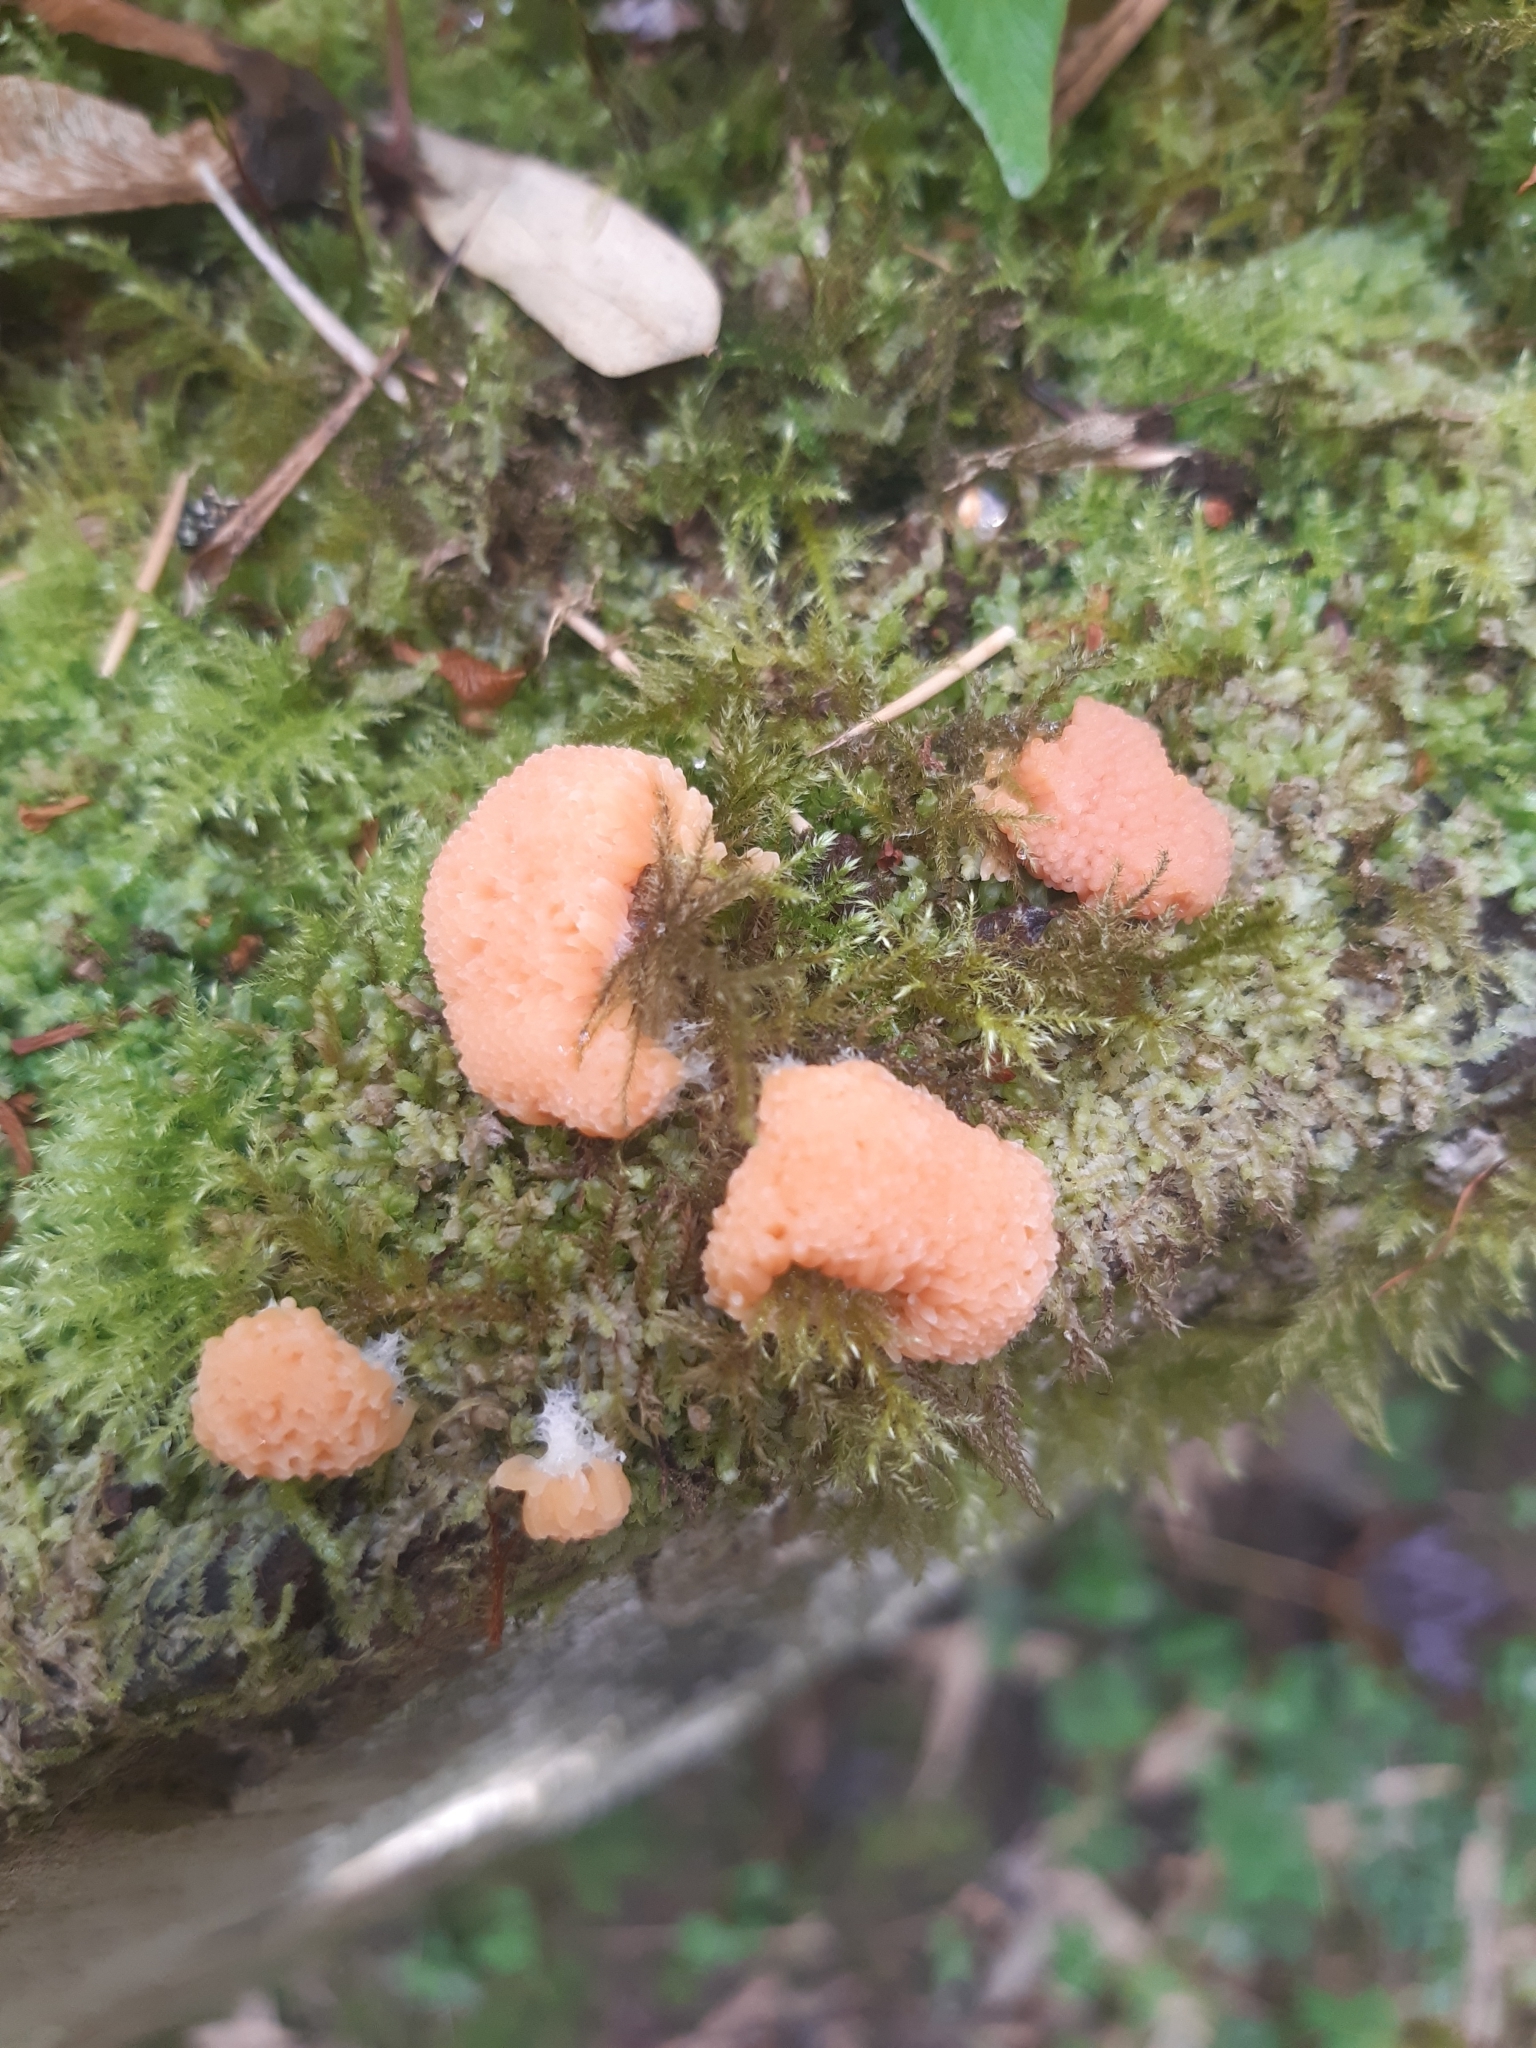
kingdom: Protozoa
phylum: Mycetozoa
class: Myxomycetes
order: Cribrariales
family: Tubiferaceae
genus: Tubifera
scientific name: Tubifera ferruginosa
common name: Red raspberry slime mold
